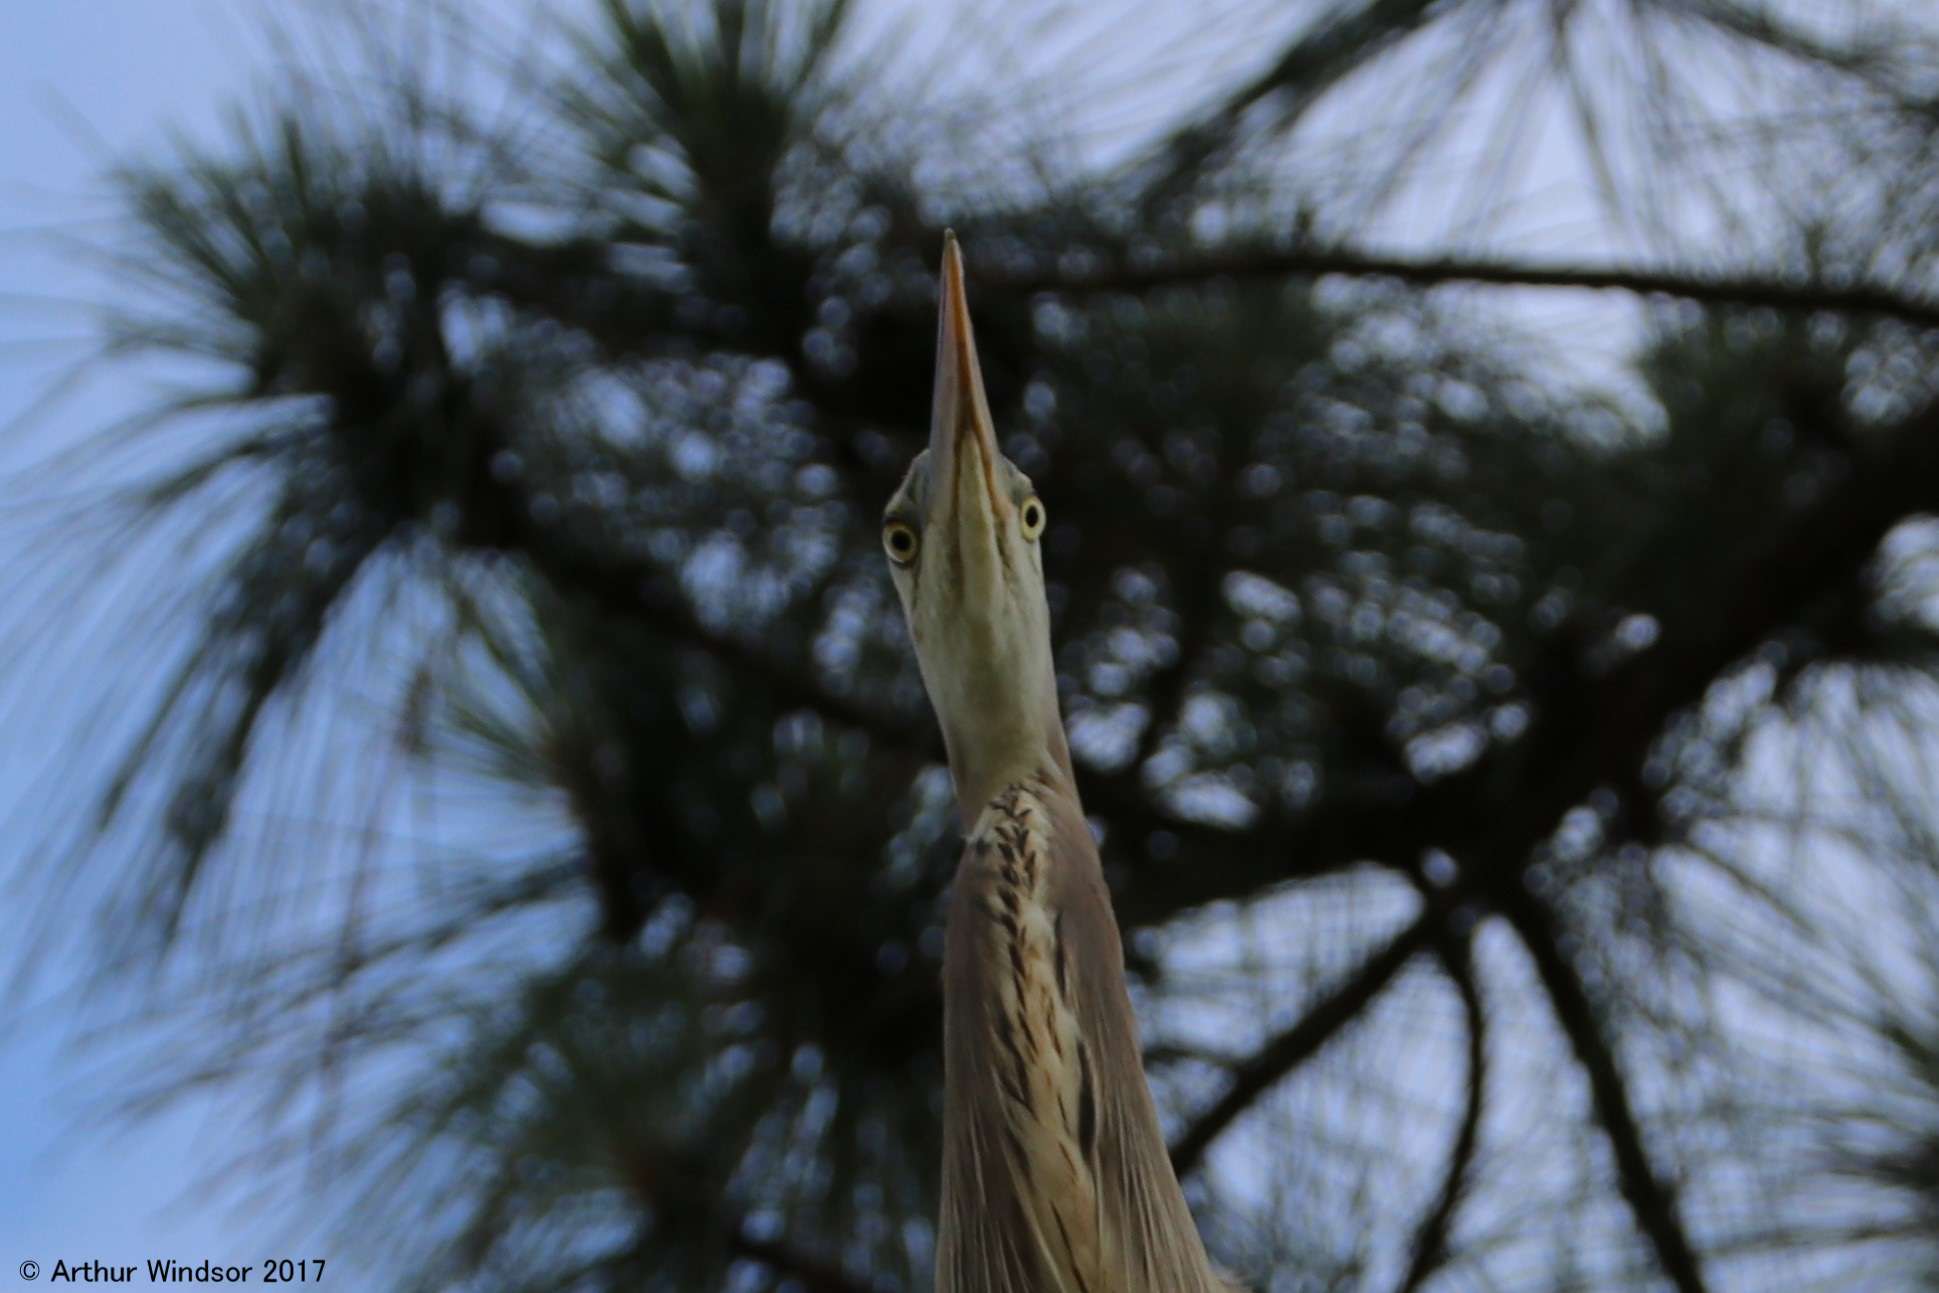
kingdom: Animalia
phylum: Chordata
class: Aves
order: Pelecaniformes
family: Ardeidae
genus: Ardea
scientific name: Ardea herodias
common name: Great blue heron
